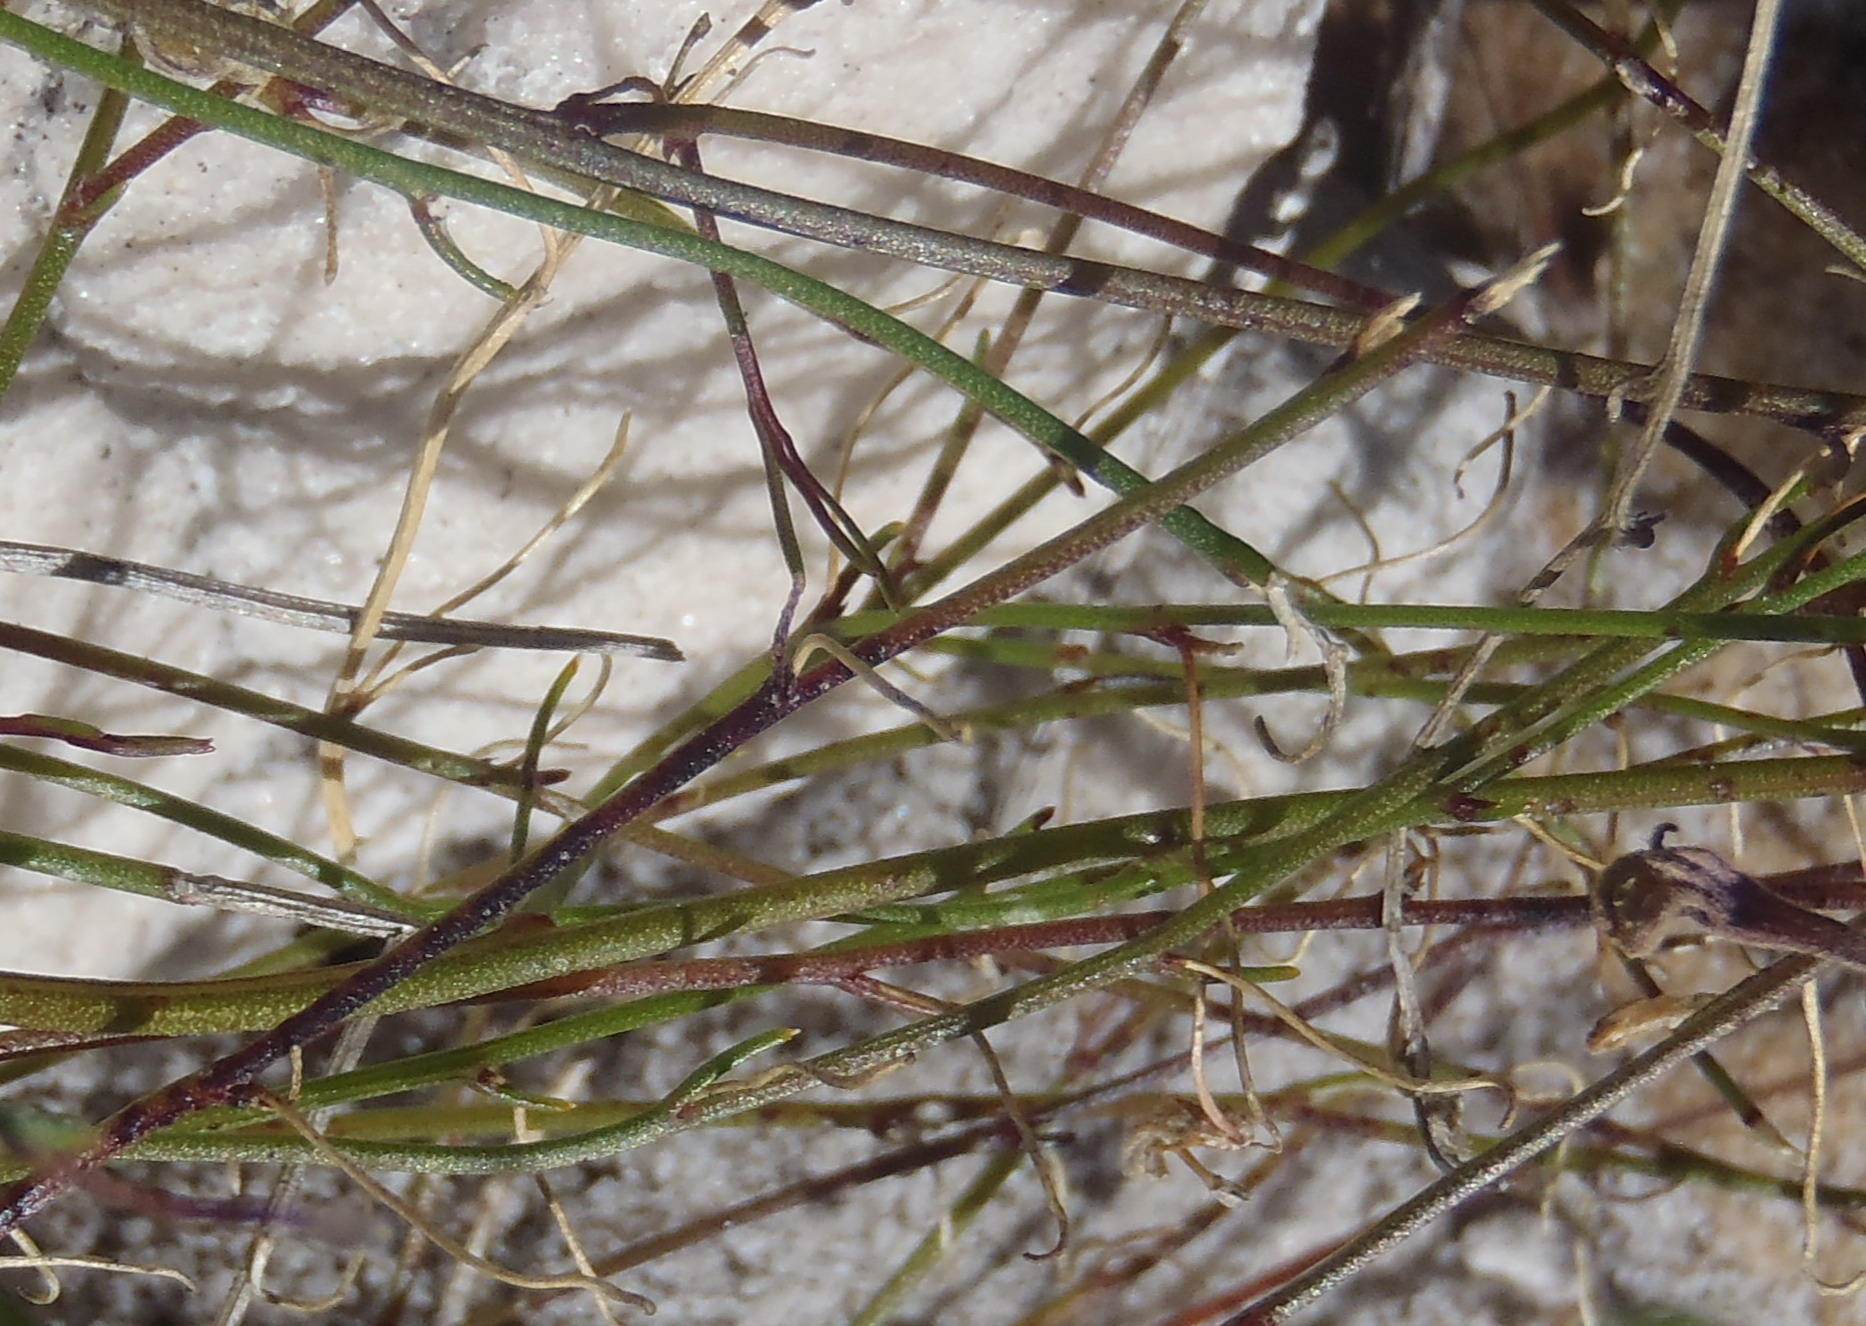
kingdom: Plantae
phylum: Tracheophyta
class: Magnoliopsida
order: Asterales
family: Campanulaceae
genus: Lobelia
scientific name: Lobelia setacea
